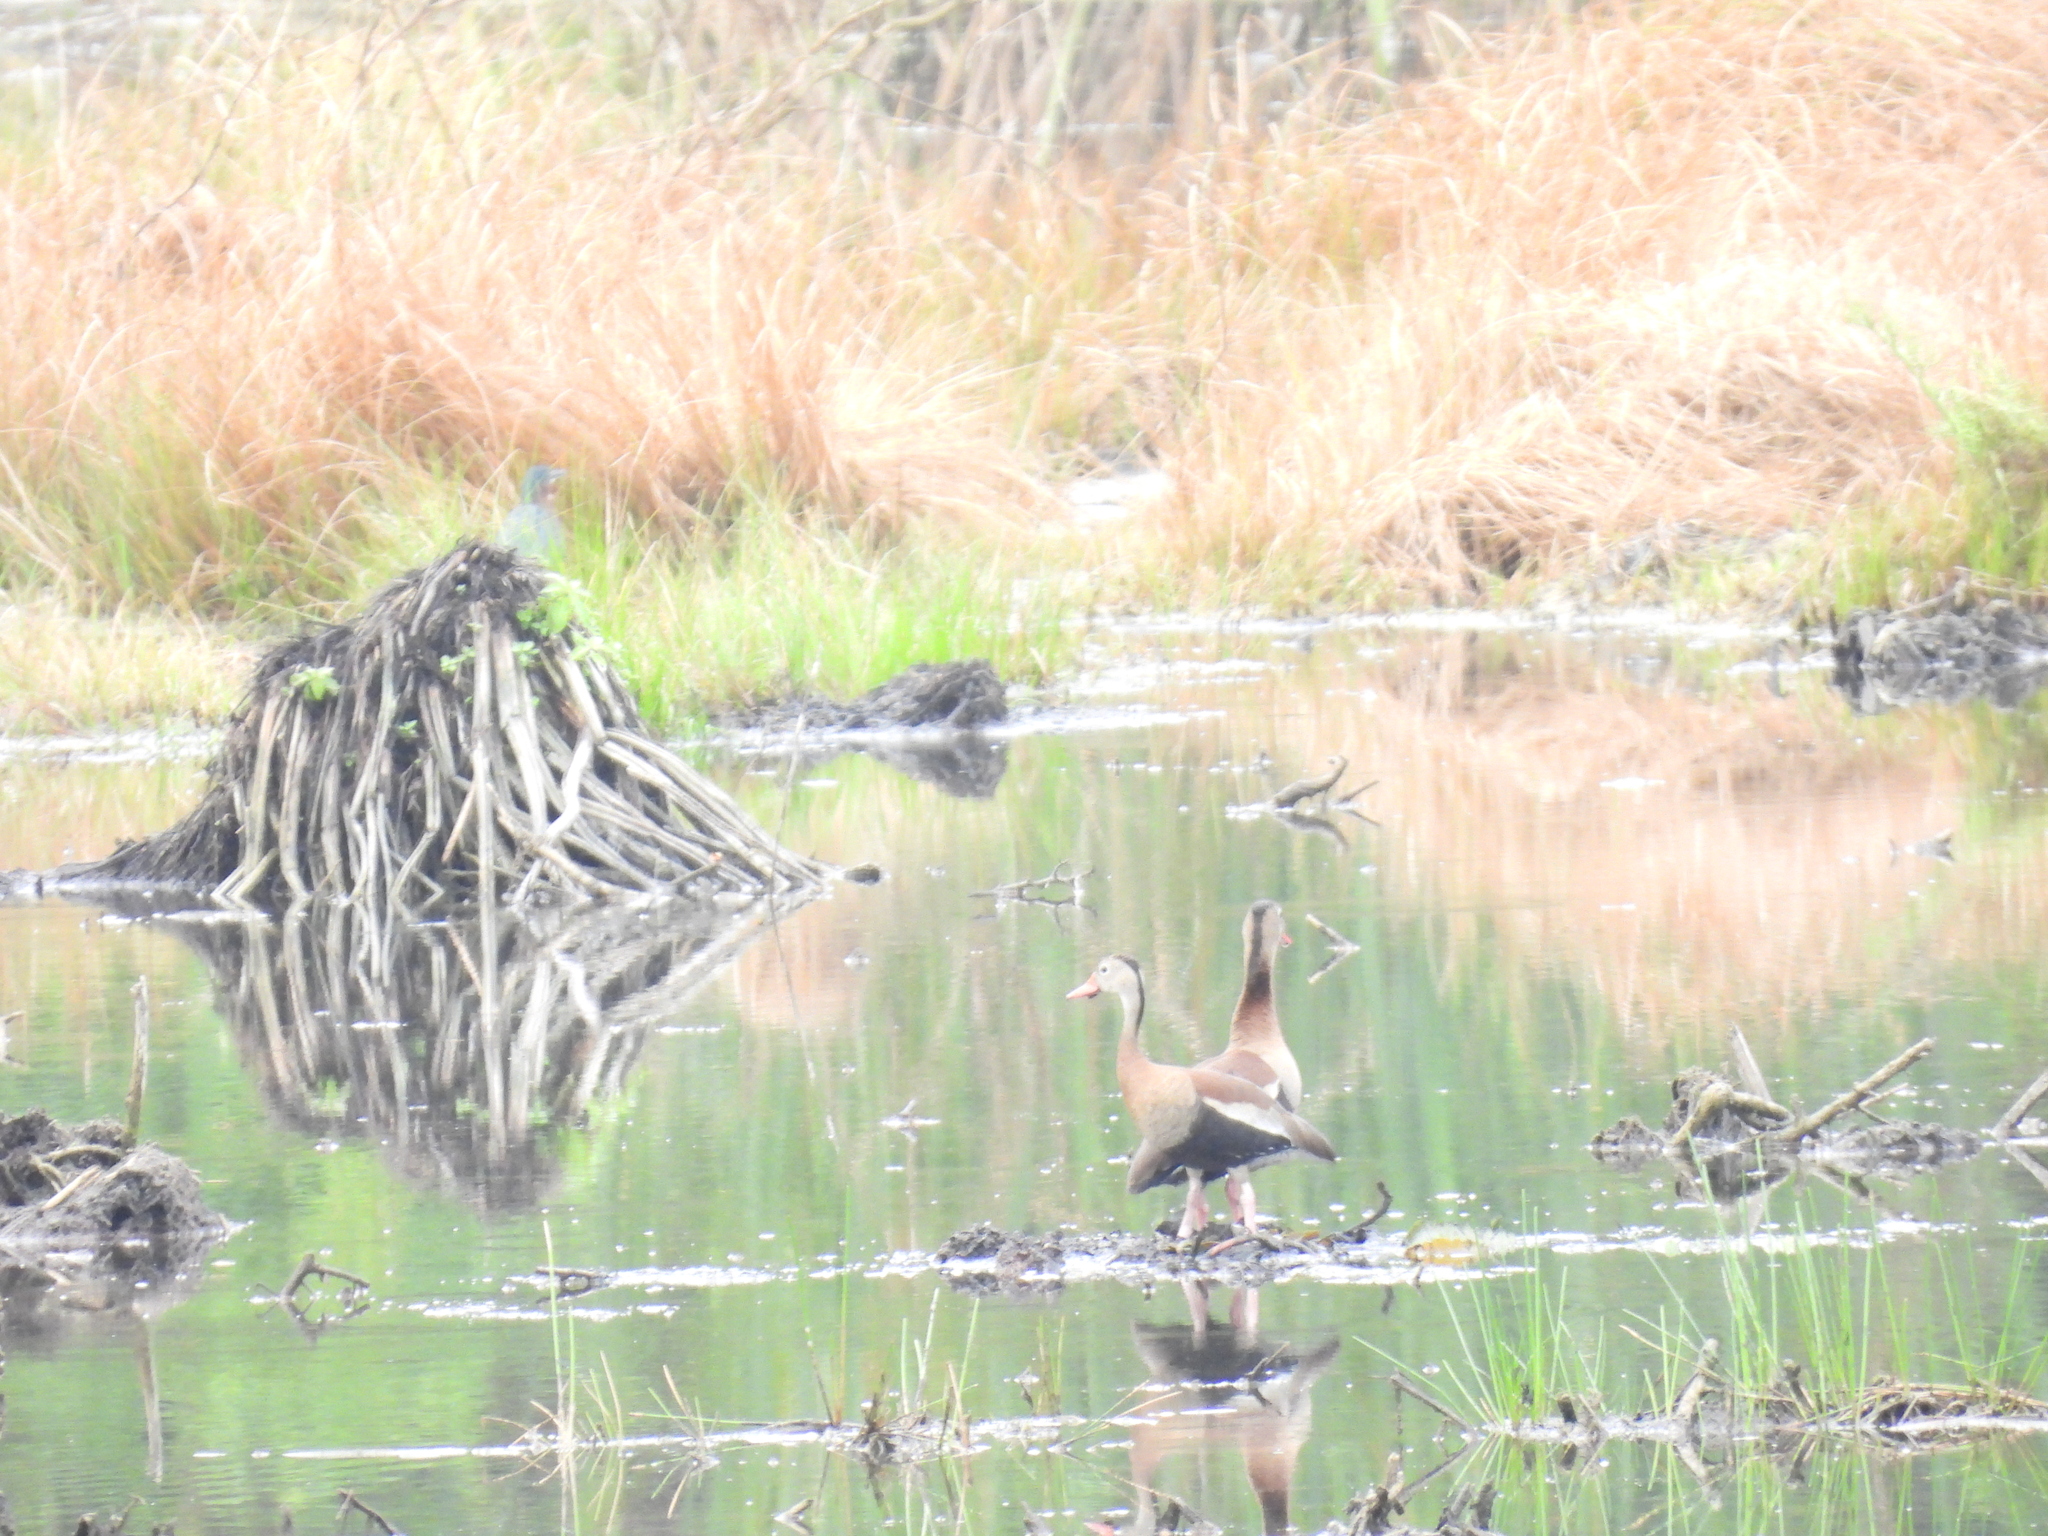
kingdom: Animalia
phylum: Chordata
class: Aves
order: Anseriformes
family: Anatidae
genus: Dendrocygna
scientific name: Dendrocygna autumnalis
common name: Black-bellied whistling duck
